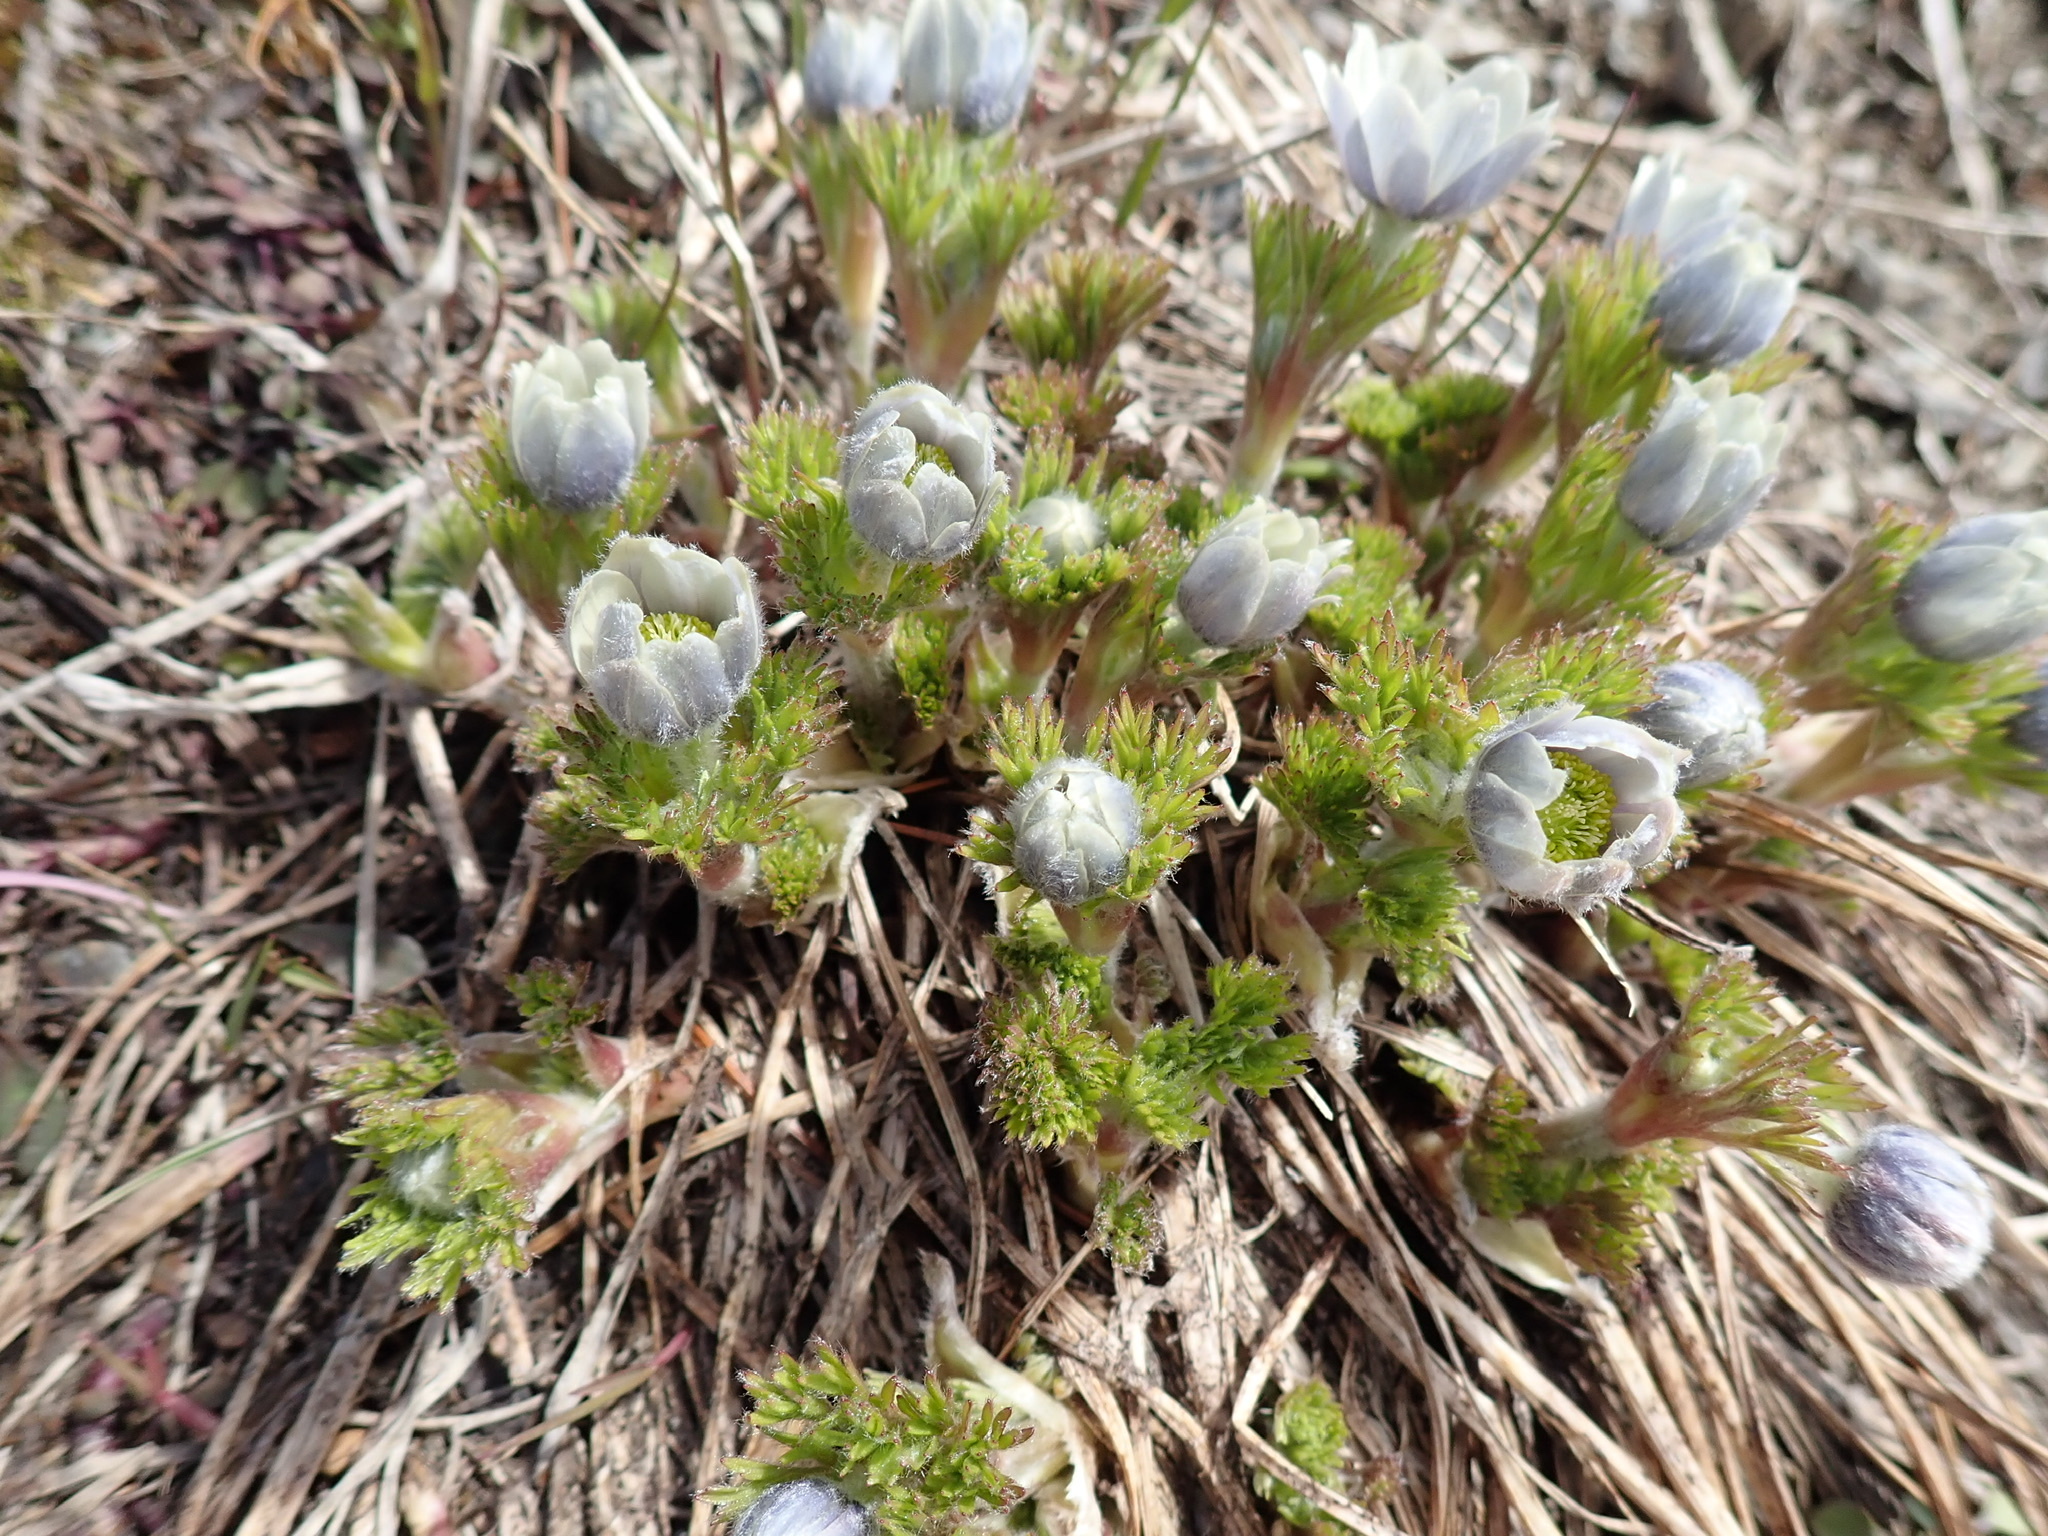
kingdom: Plantae
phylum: Tracheophyta
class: Magnoliopsida
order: Ranunculales
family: Ranunculaceae
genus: Anemone
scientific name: Anemone drummondii
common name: Drummond's anemone
